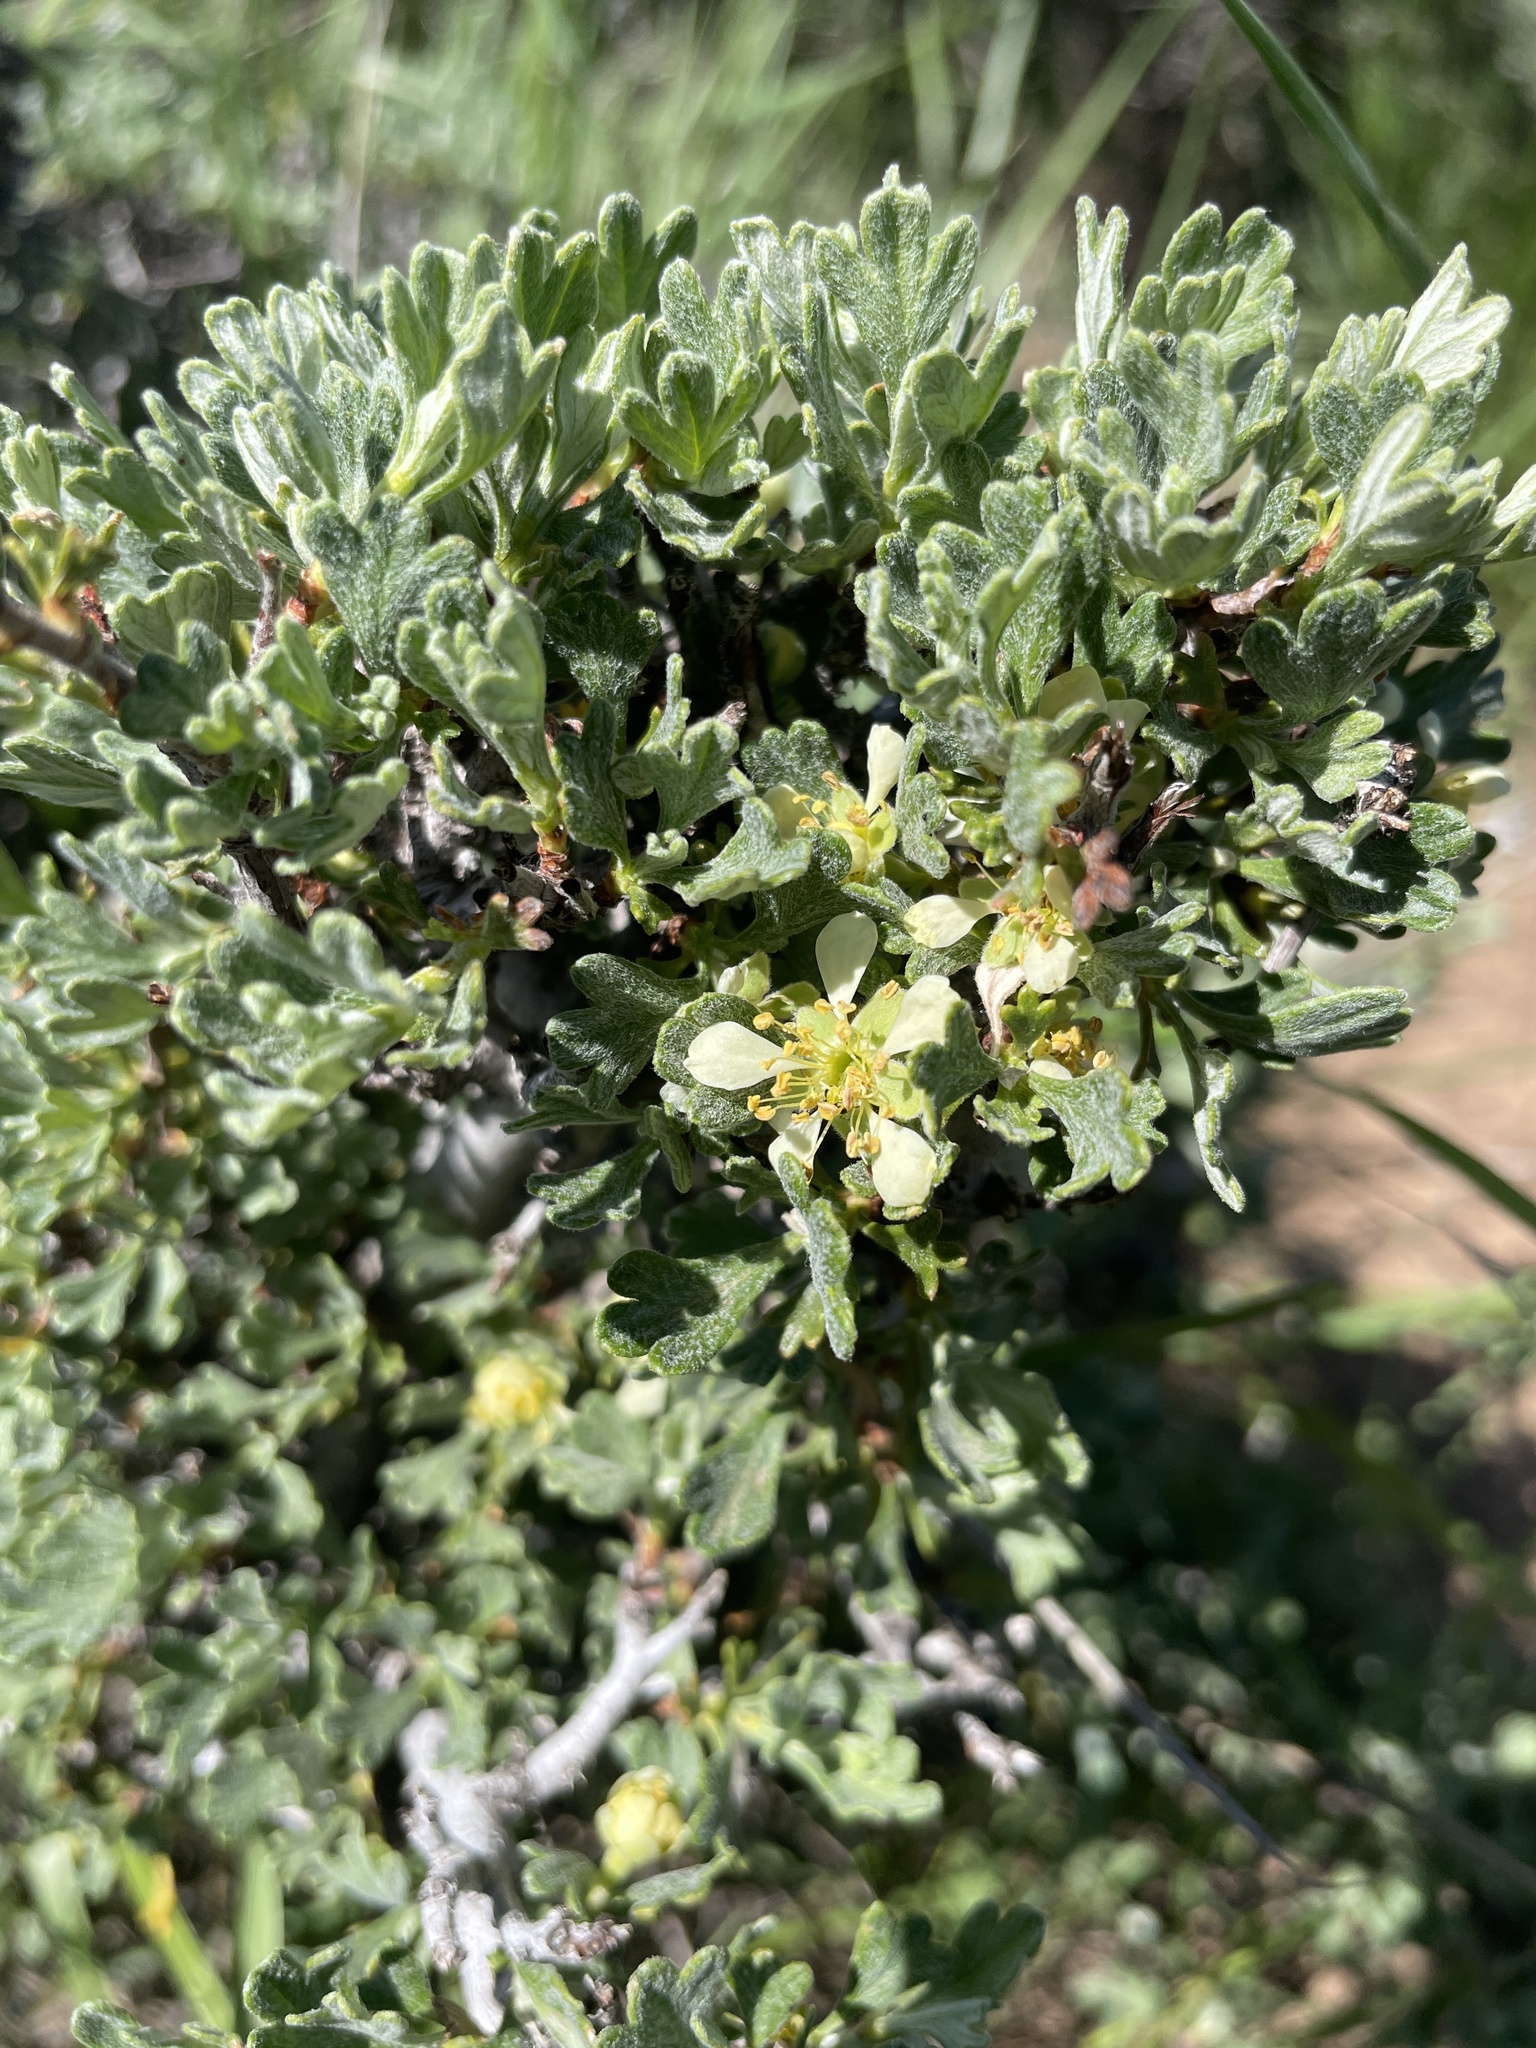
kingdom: Plantae
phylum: Tracheophyta
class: Magnoliopsida
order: Rosales
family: Rosaceae
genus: Purshia
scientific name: Purshia tridentata
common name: Antelope bitterbrush
